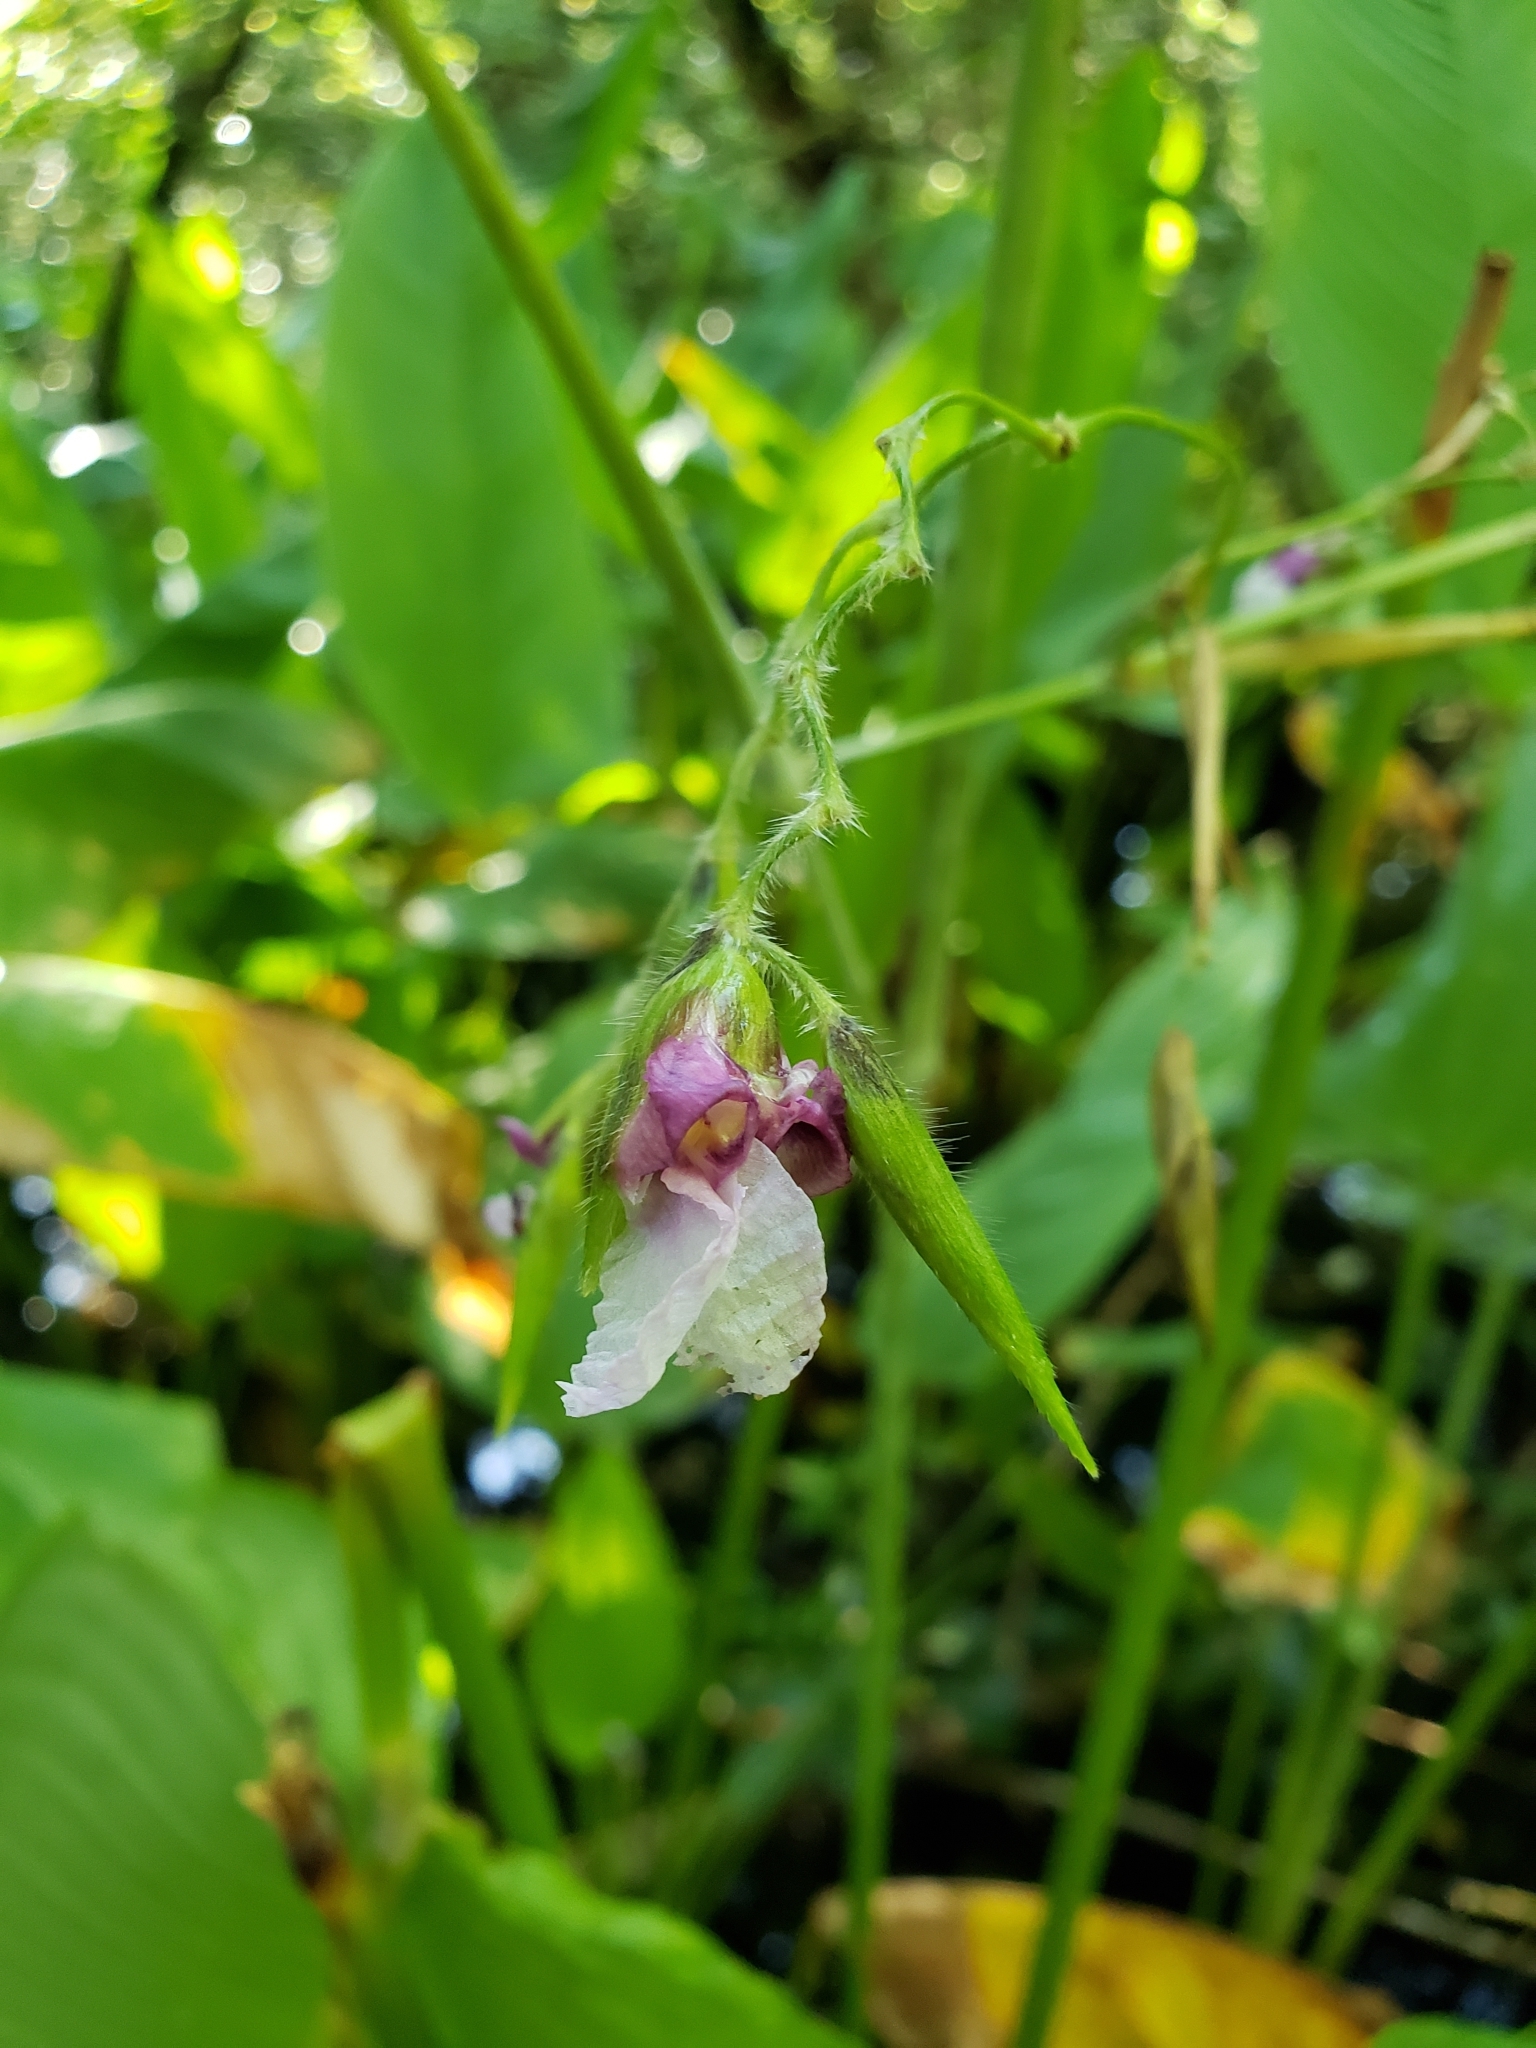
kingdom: Plantae
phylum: Tracheophyta
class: Liliopsida
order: Zingiberales
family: Marantaceae
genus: Thalia
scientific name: Thalia geniculata
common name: Arrowroot
